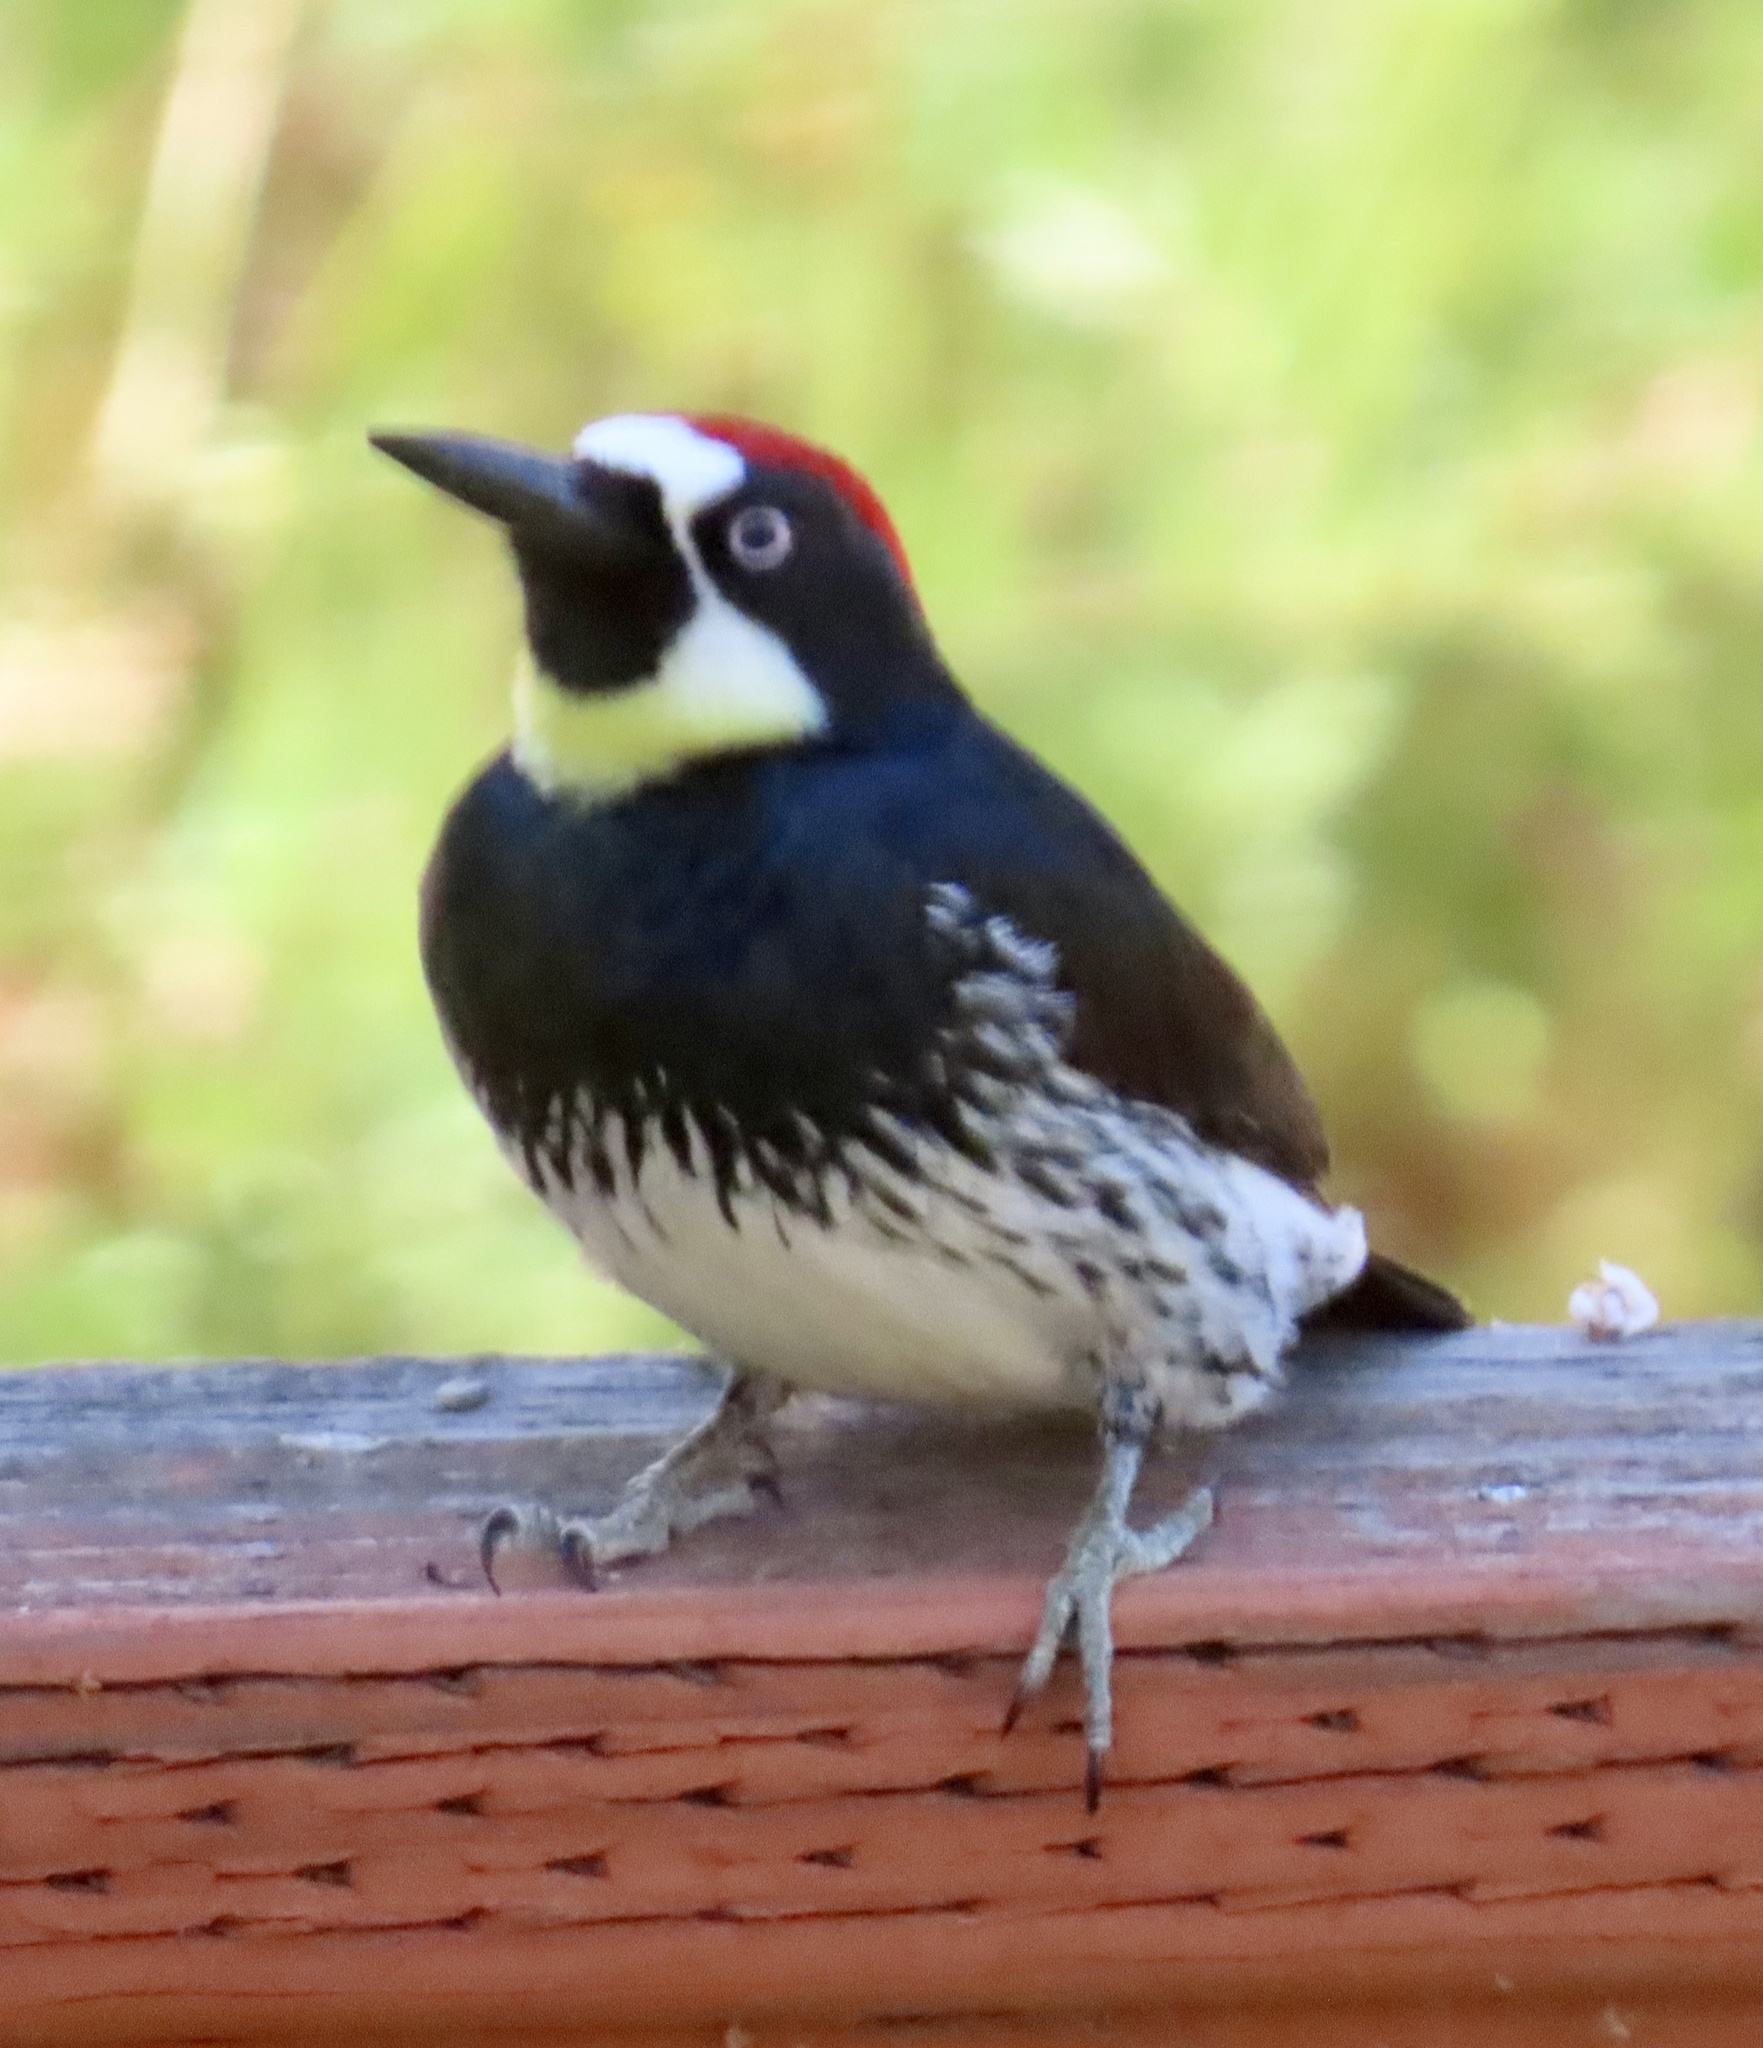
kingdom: Animalia
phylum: Chordata
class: Aves
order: Piciformes
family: Picidae
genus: Melanerpes
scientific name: Melanerpes formicivorus
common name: Acorn woodpecker
